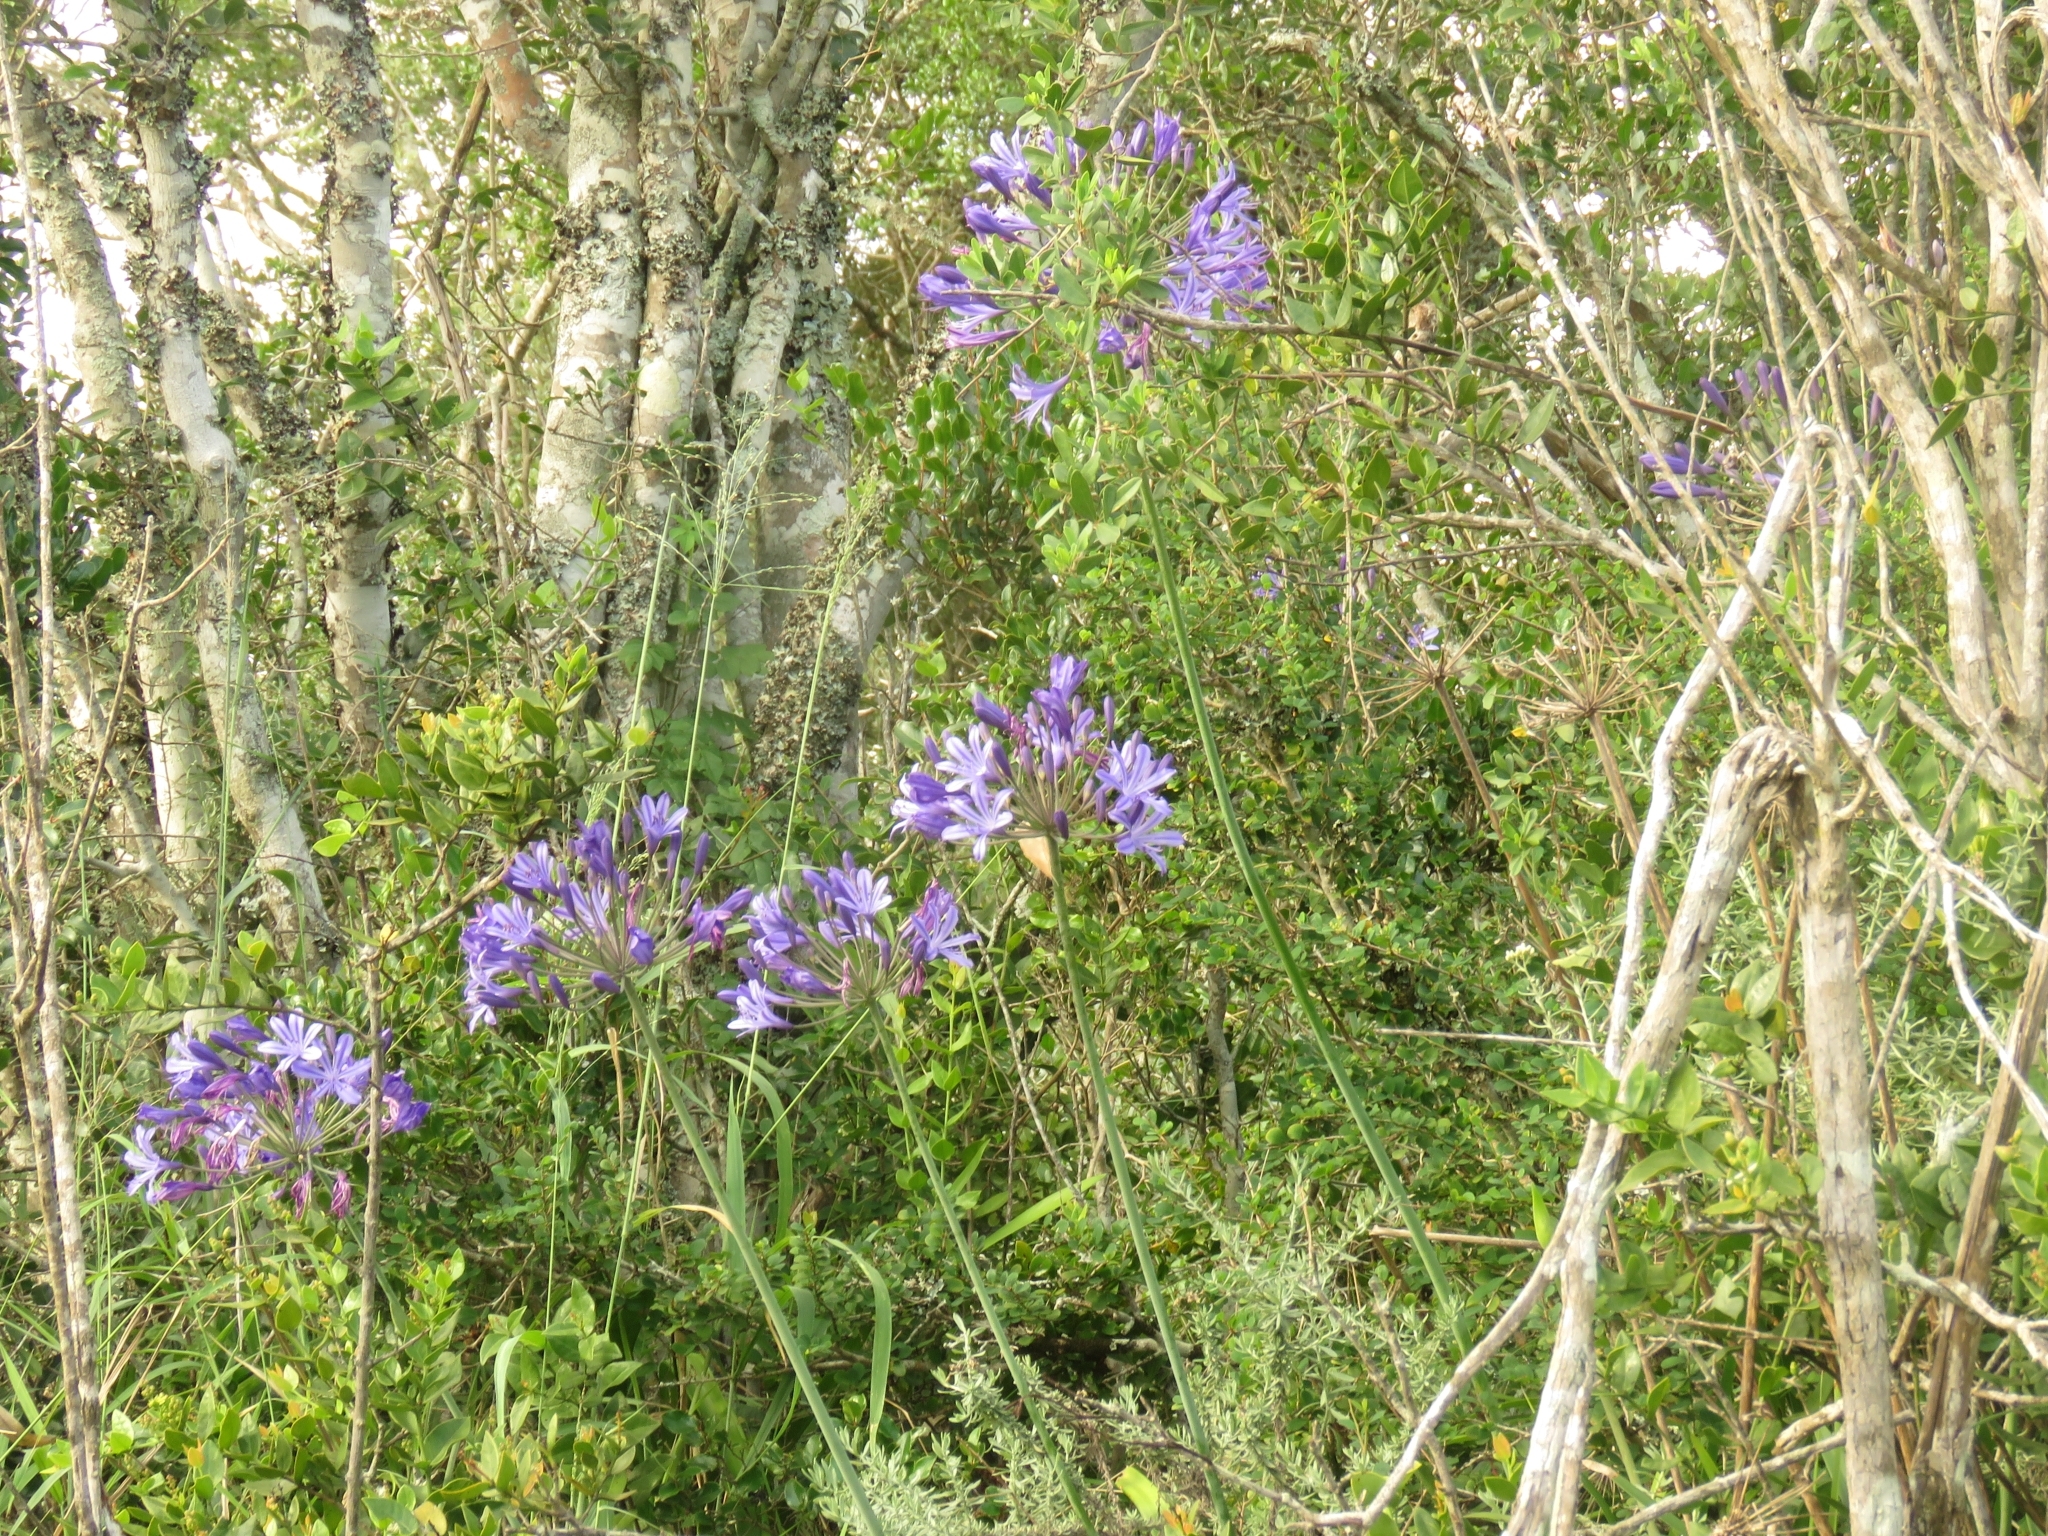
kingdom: Plantae
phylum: Tracheophyta
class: Liliopsida
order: Asparagales
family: Amaryllidaceae
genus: Agapanthus
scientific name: Agapanthus praecox
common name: African-lily
